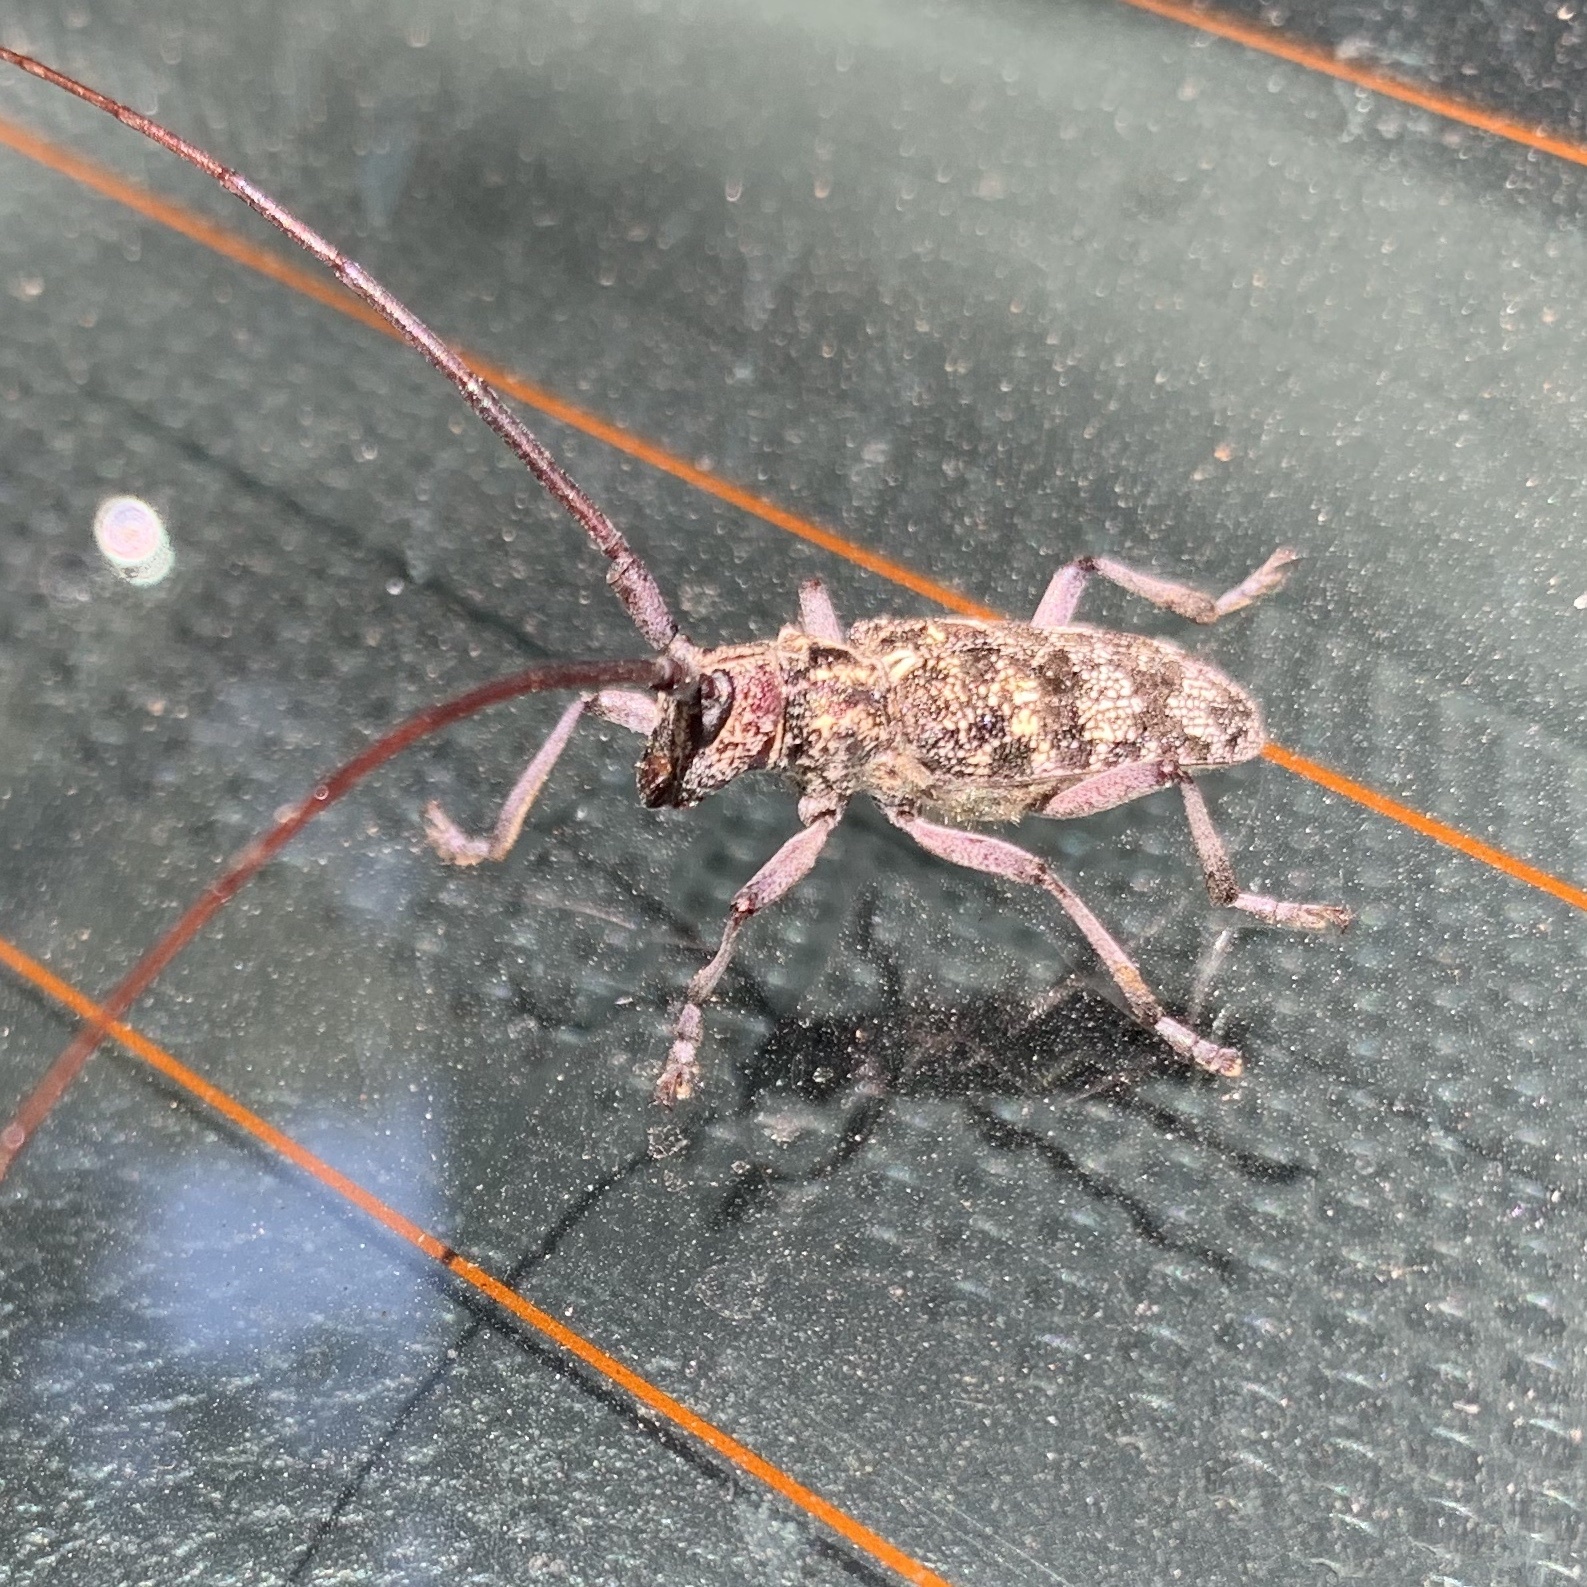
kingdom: Animalia
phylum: Arthropoda
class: Insecta
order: Coleoptera
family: Cerambycidae
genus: Monochamus
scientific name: Monochamus clamator
